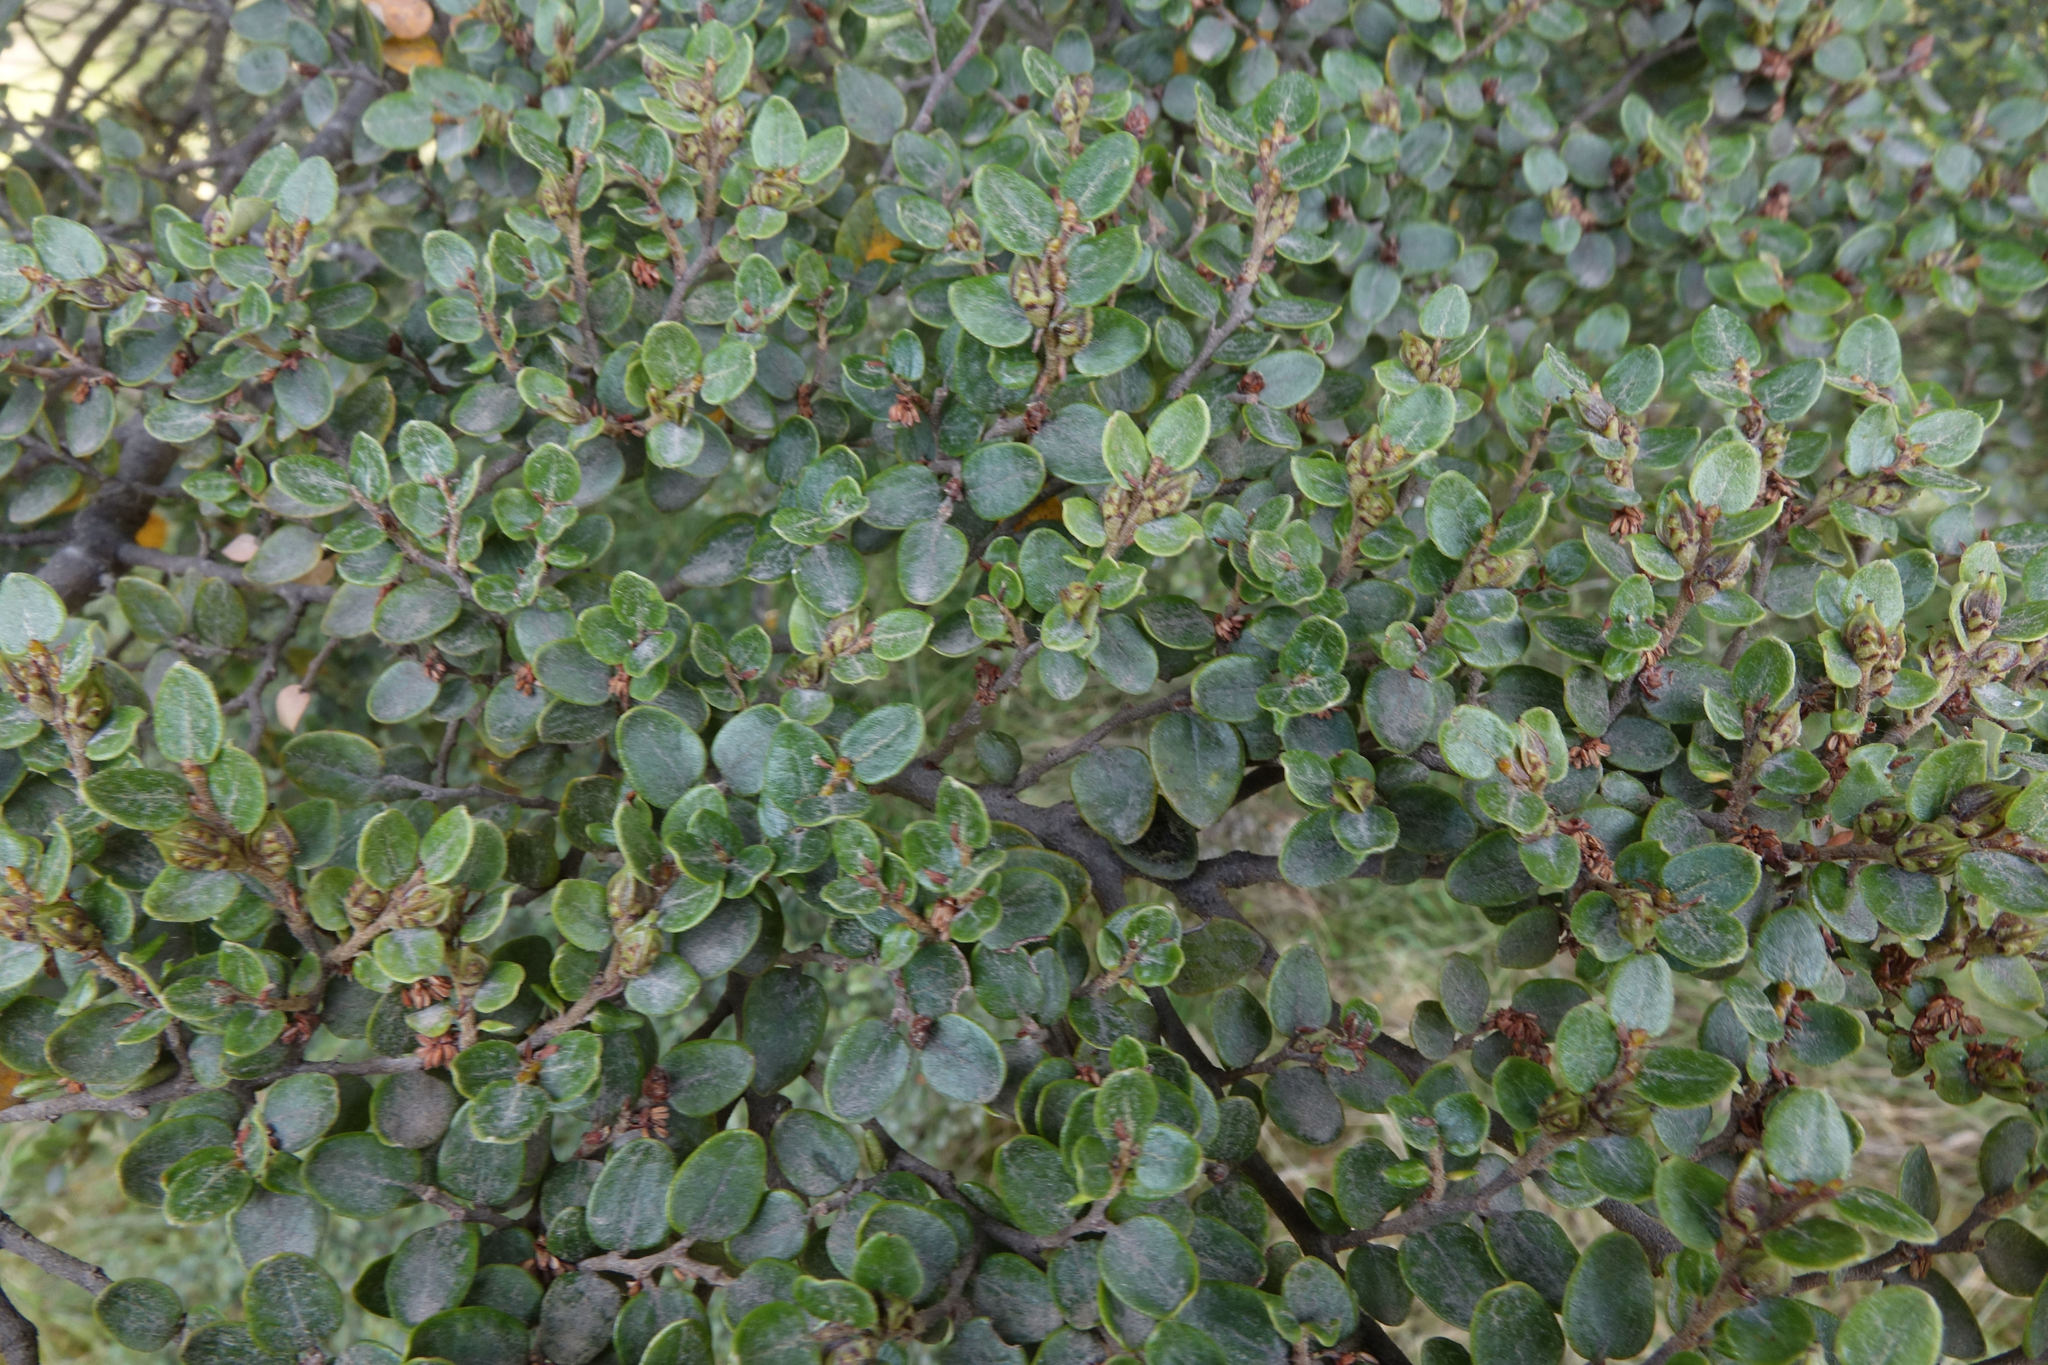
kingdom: Plantae
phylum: Tracheophyta
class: Magnoliopsida
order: Fagales
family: Nothofagaceae
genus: Nothofagus
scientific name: Nothofagus cliffortioides
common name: Mountain beech
